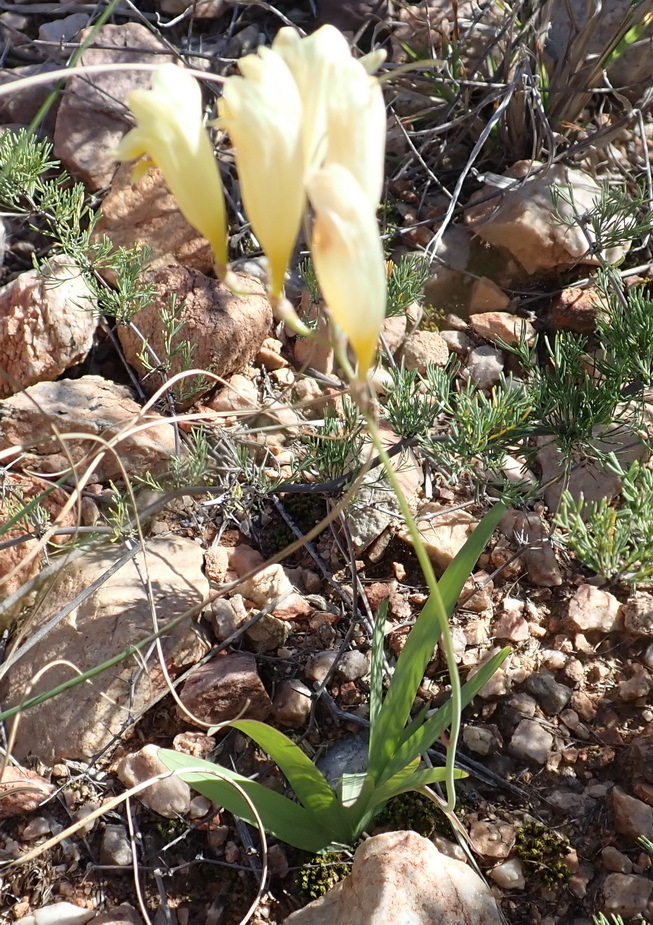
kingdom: Plantae
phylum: Tracheophyta
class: Liliopsida
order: Asparagales
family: Iridaceae
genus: Freesia
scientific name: Freesia corymbosa
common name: Common freesia
